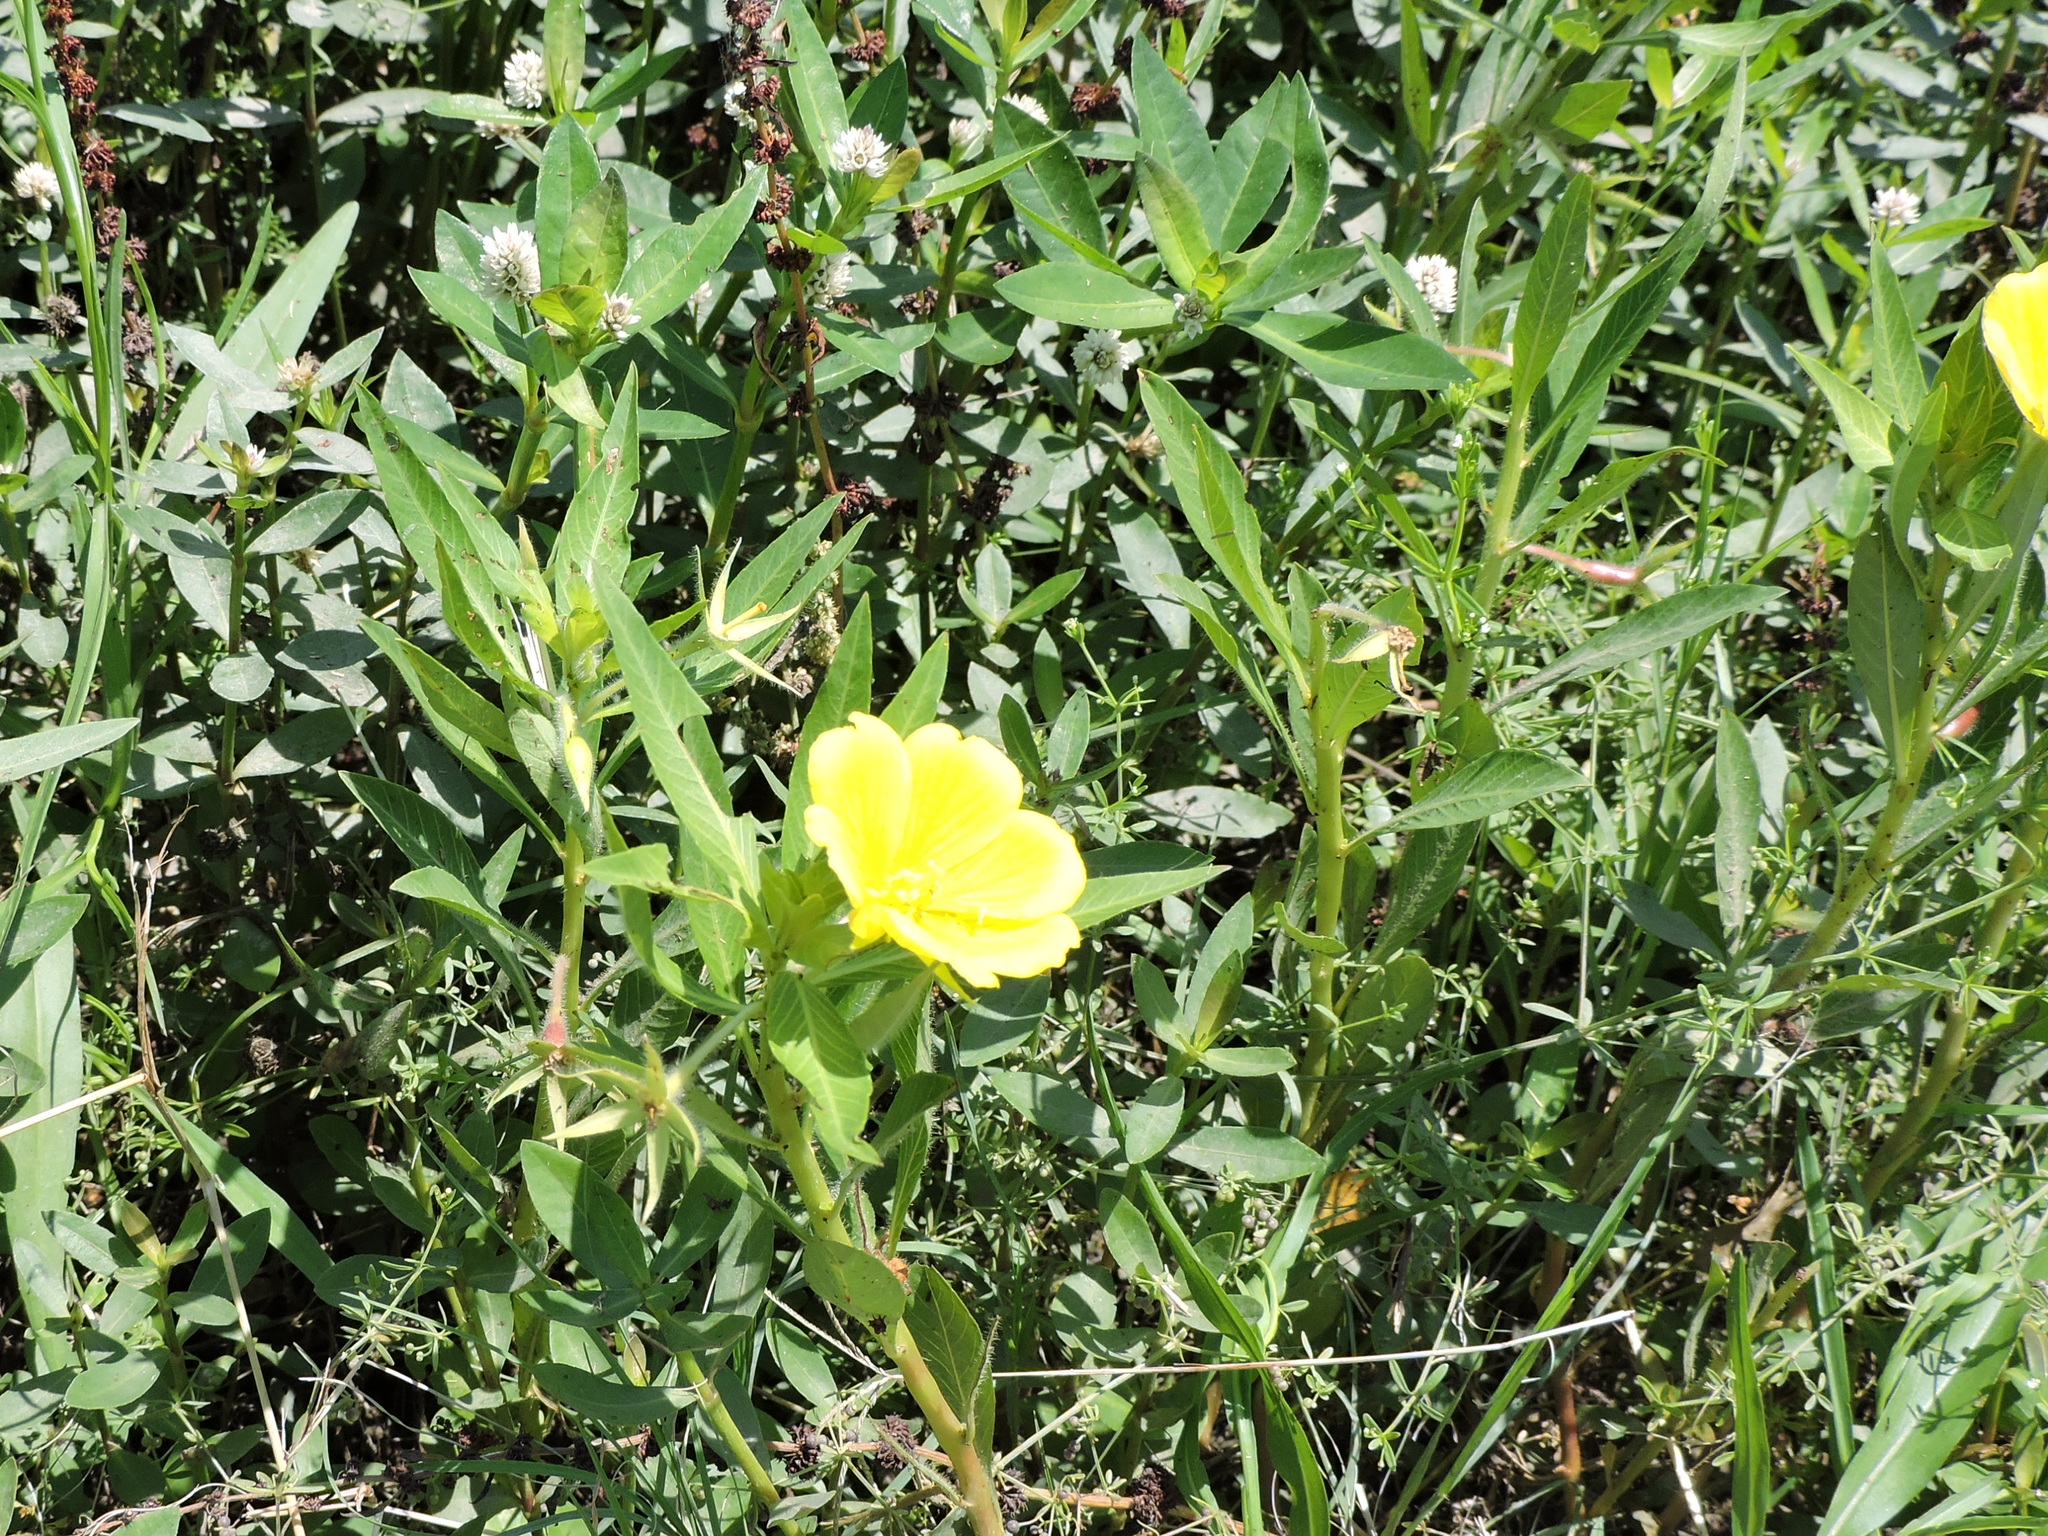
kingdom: Plantae
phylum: Tracheophyta
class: Magnoliopsida
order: Myrtales
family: Onagraceae
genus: Ludwigia
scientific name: Ludwigia leptocarpa
